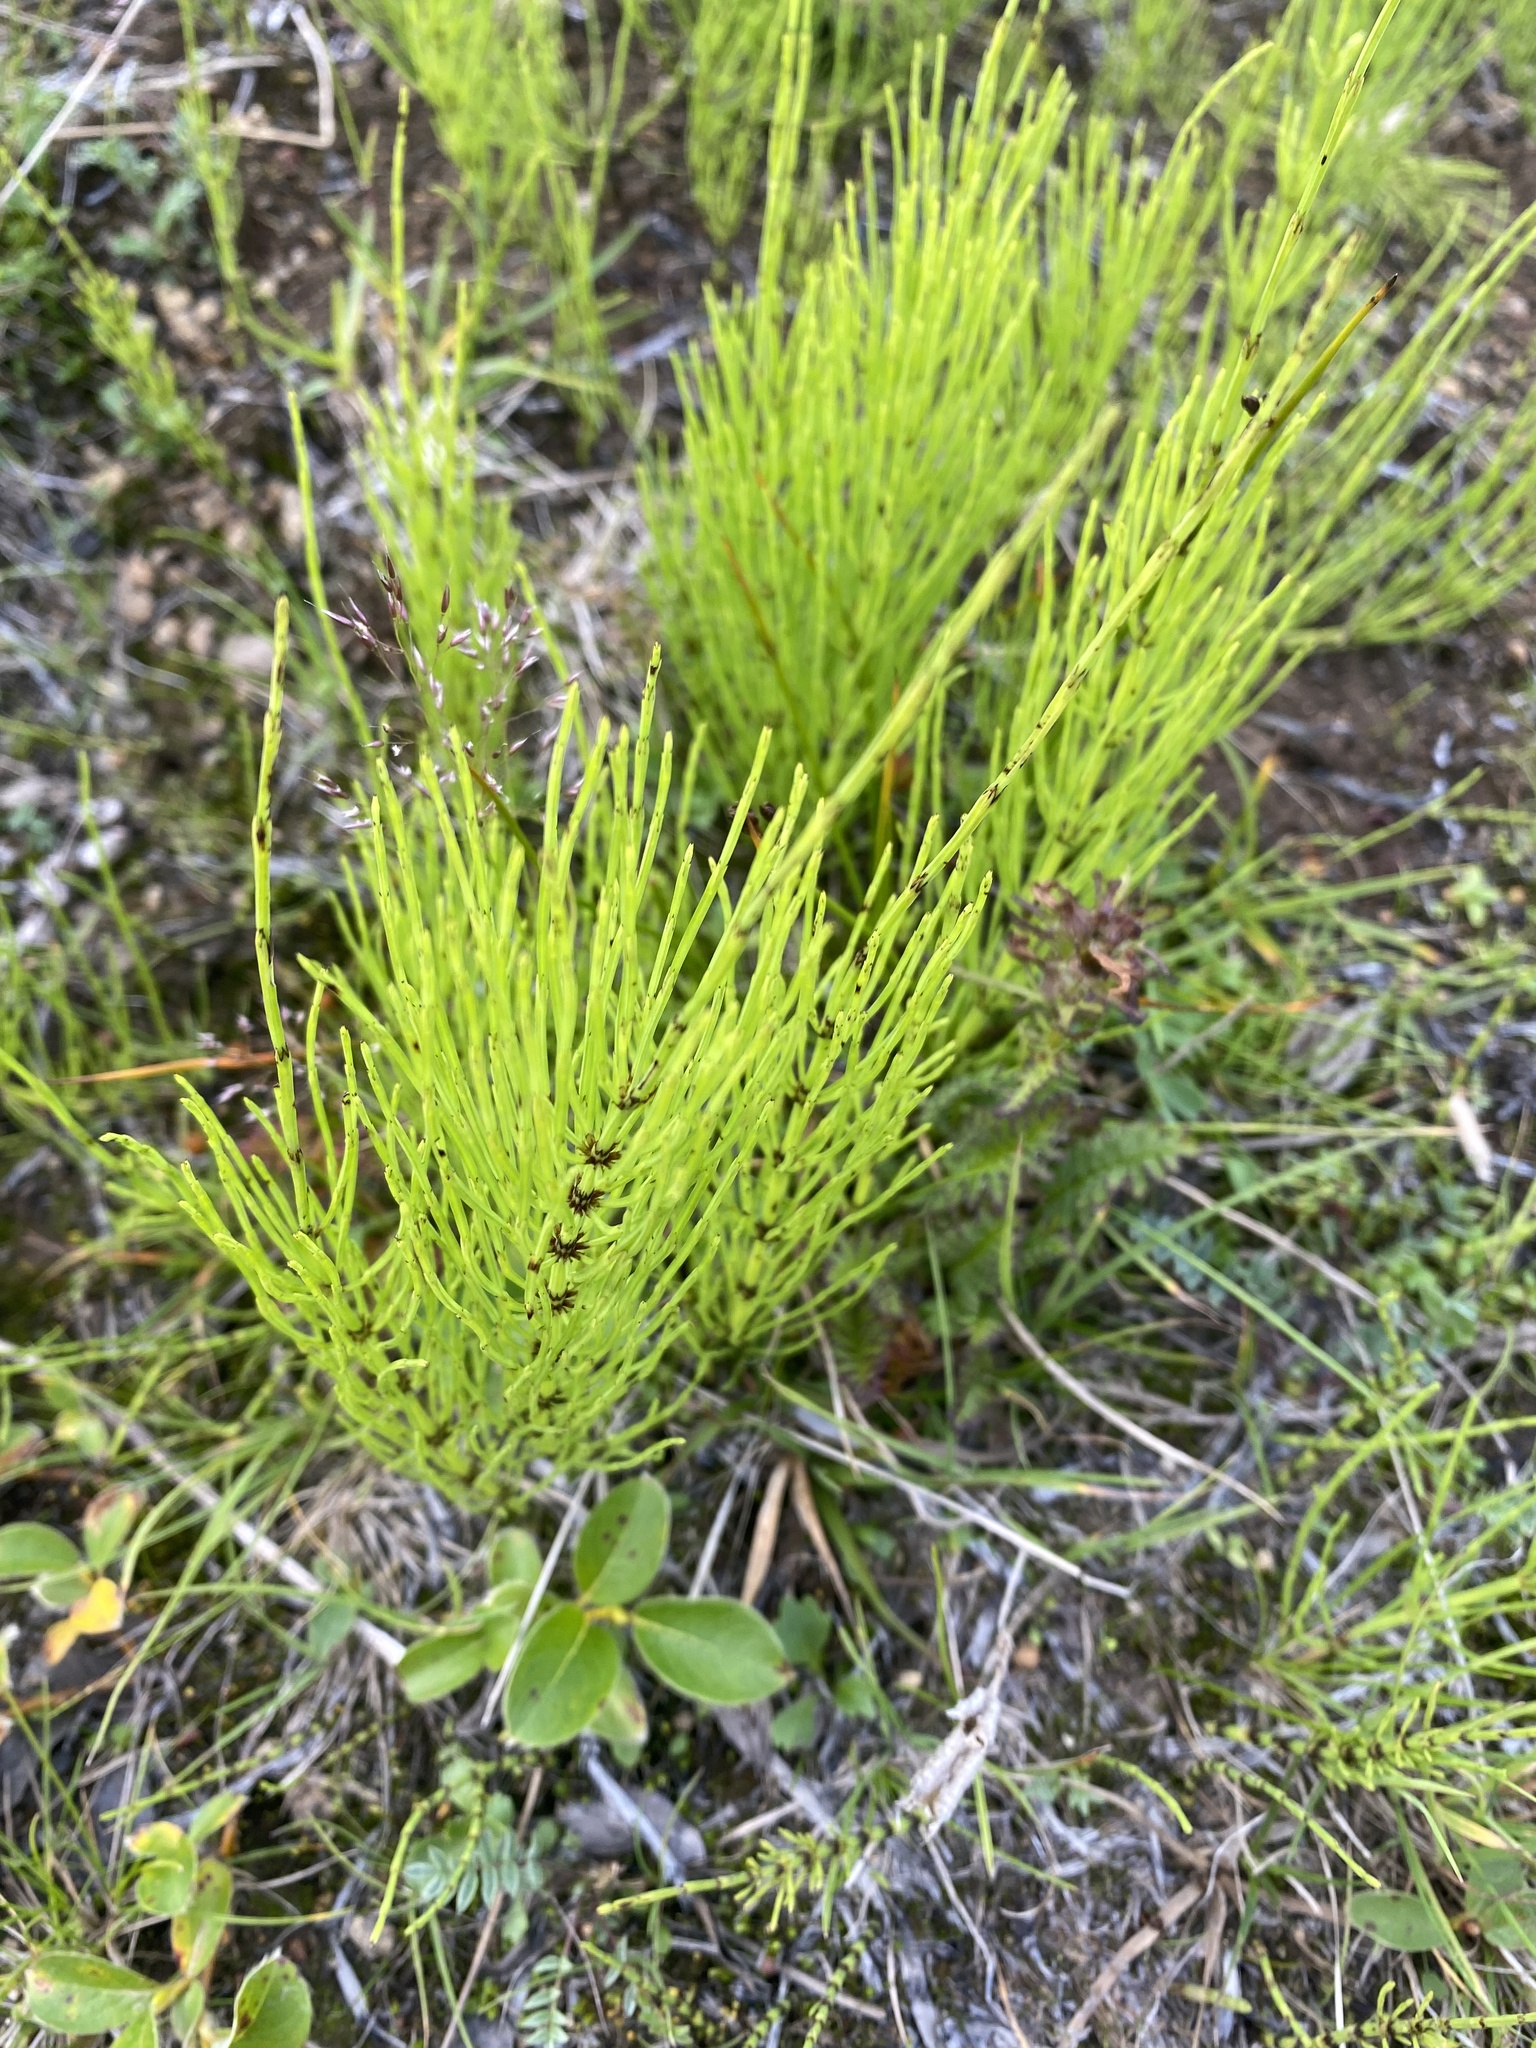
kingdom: Plantae
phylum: Tracheophyta
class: Polypodiopsida
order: Equisetales
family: Equisetaceae
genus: Equisetum
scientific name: Equisetum arvense
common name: Field horsetail
